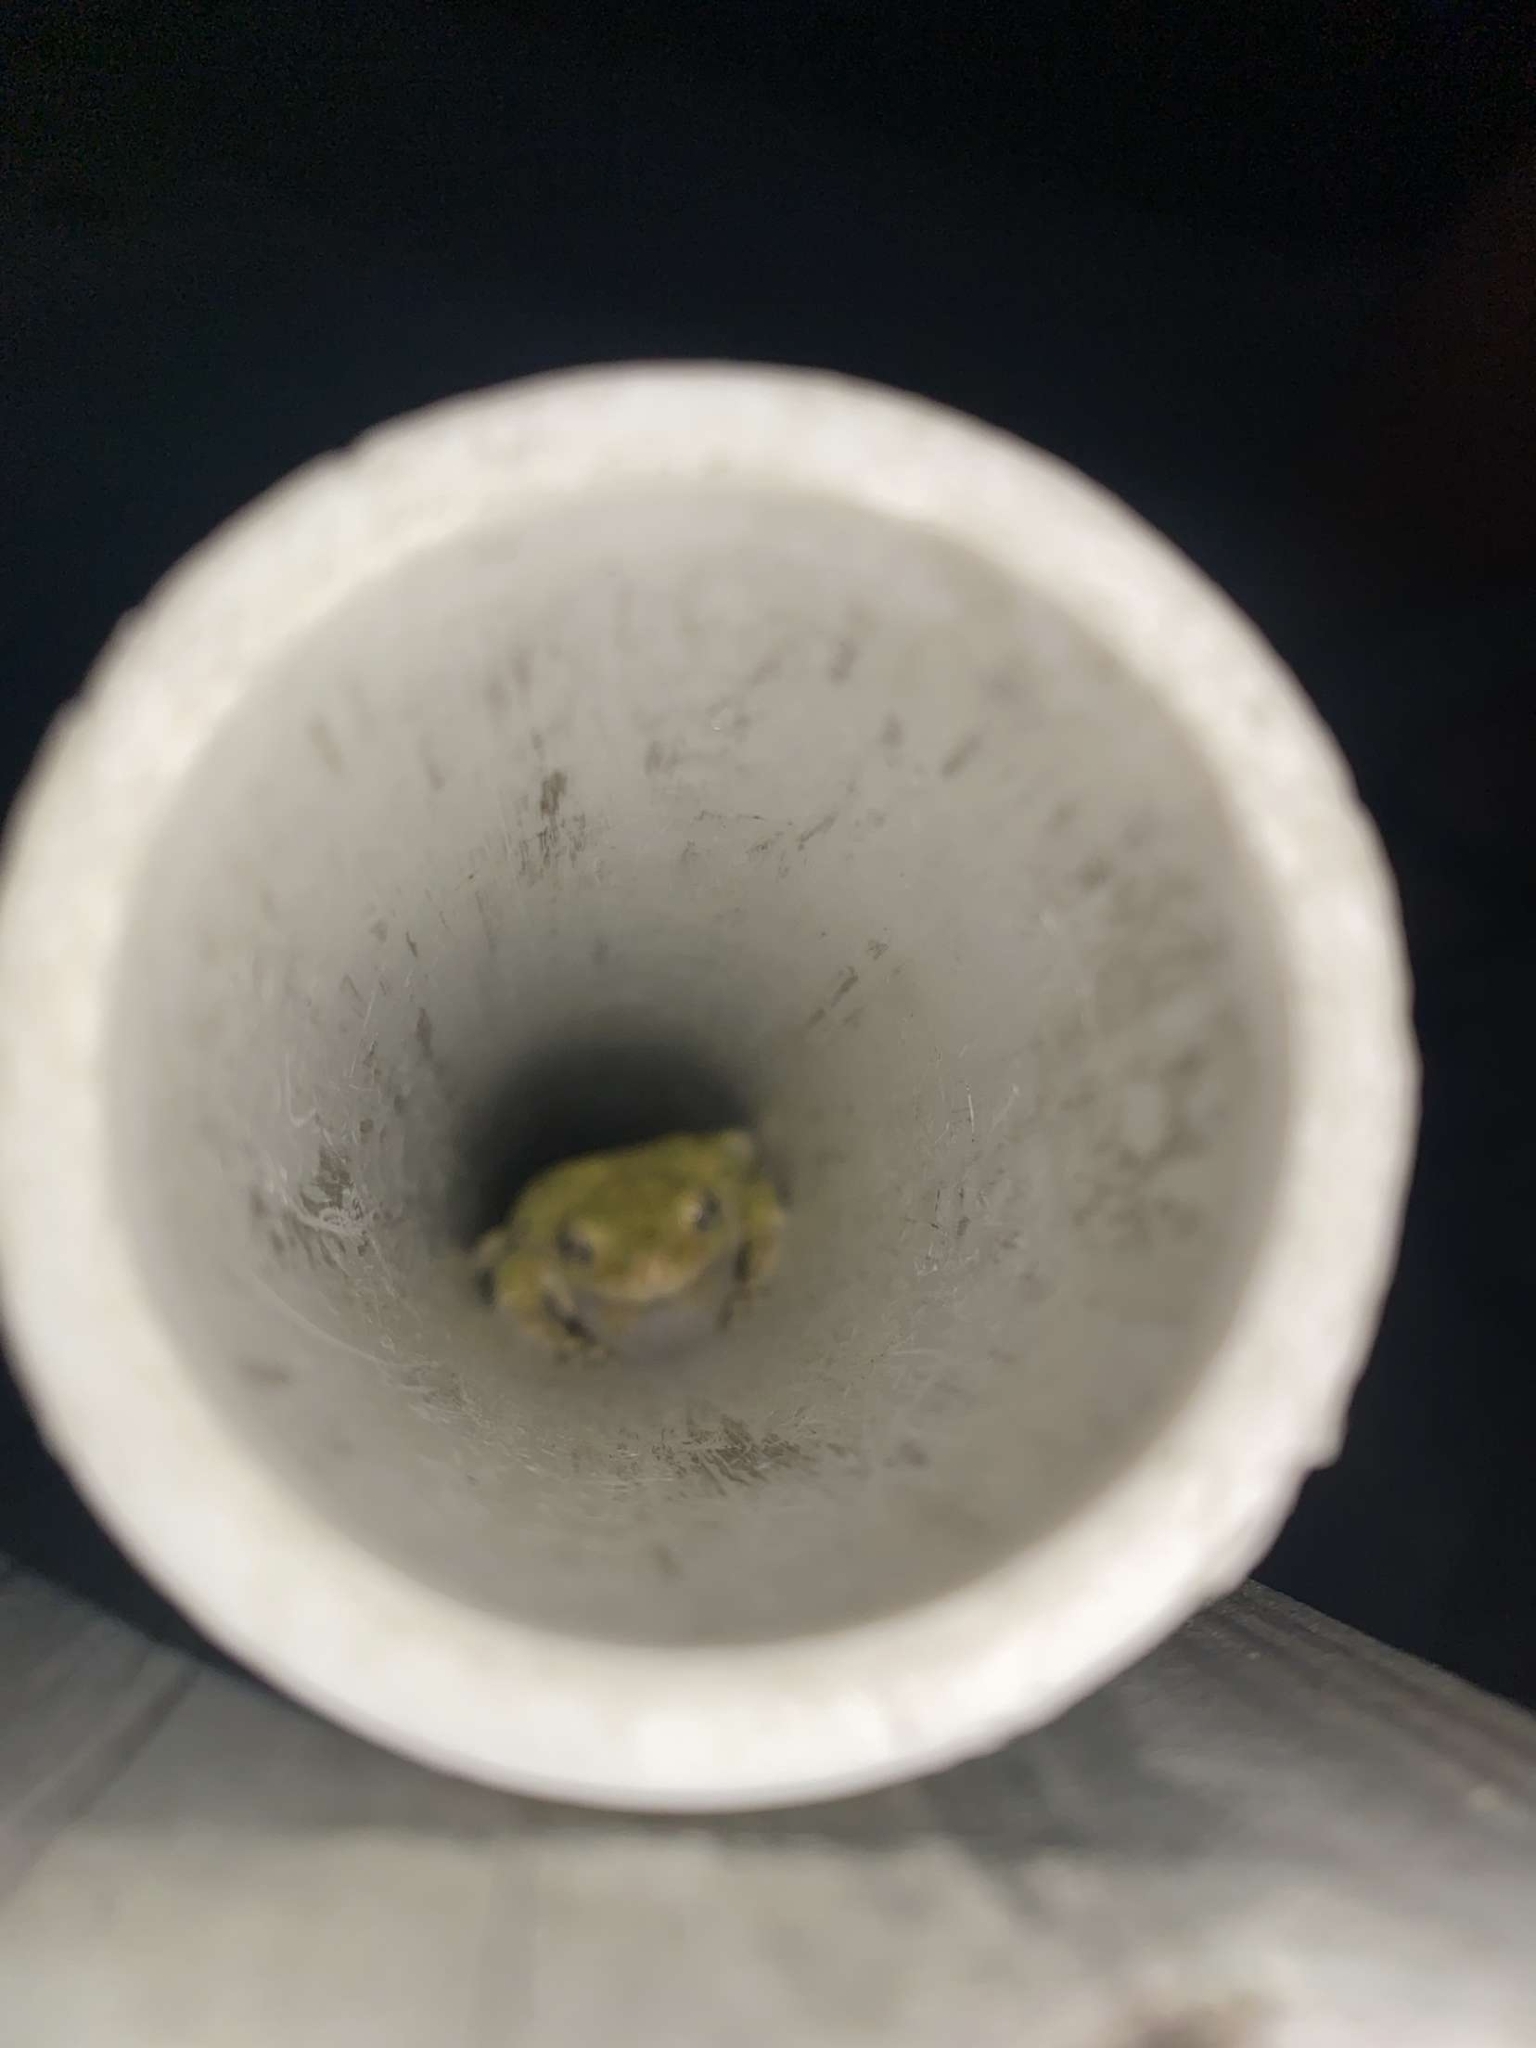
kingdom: Animalia
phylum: Chordata
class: Amphibia
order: Anura
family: Hylidae
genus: Dryophytes
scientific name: Dryophytes versicolor
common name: Gray treefrog
